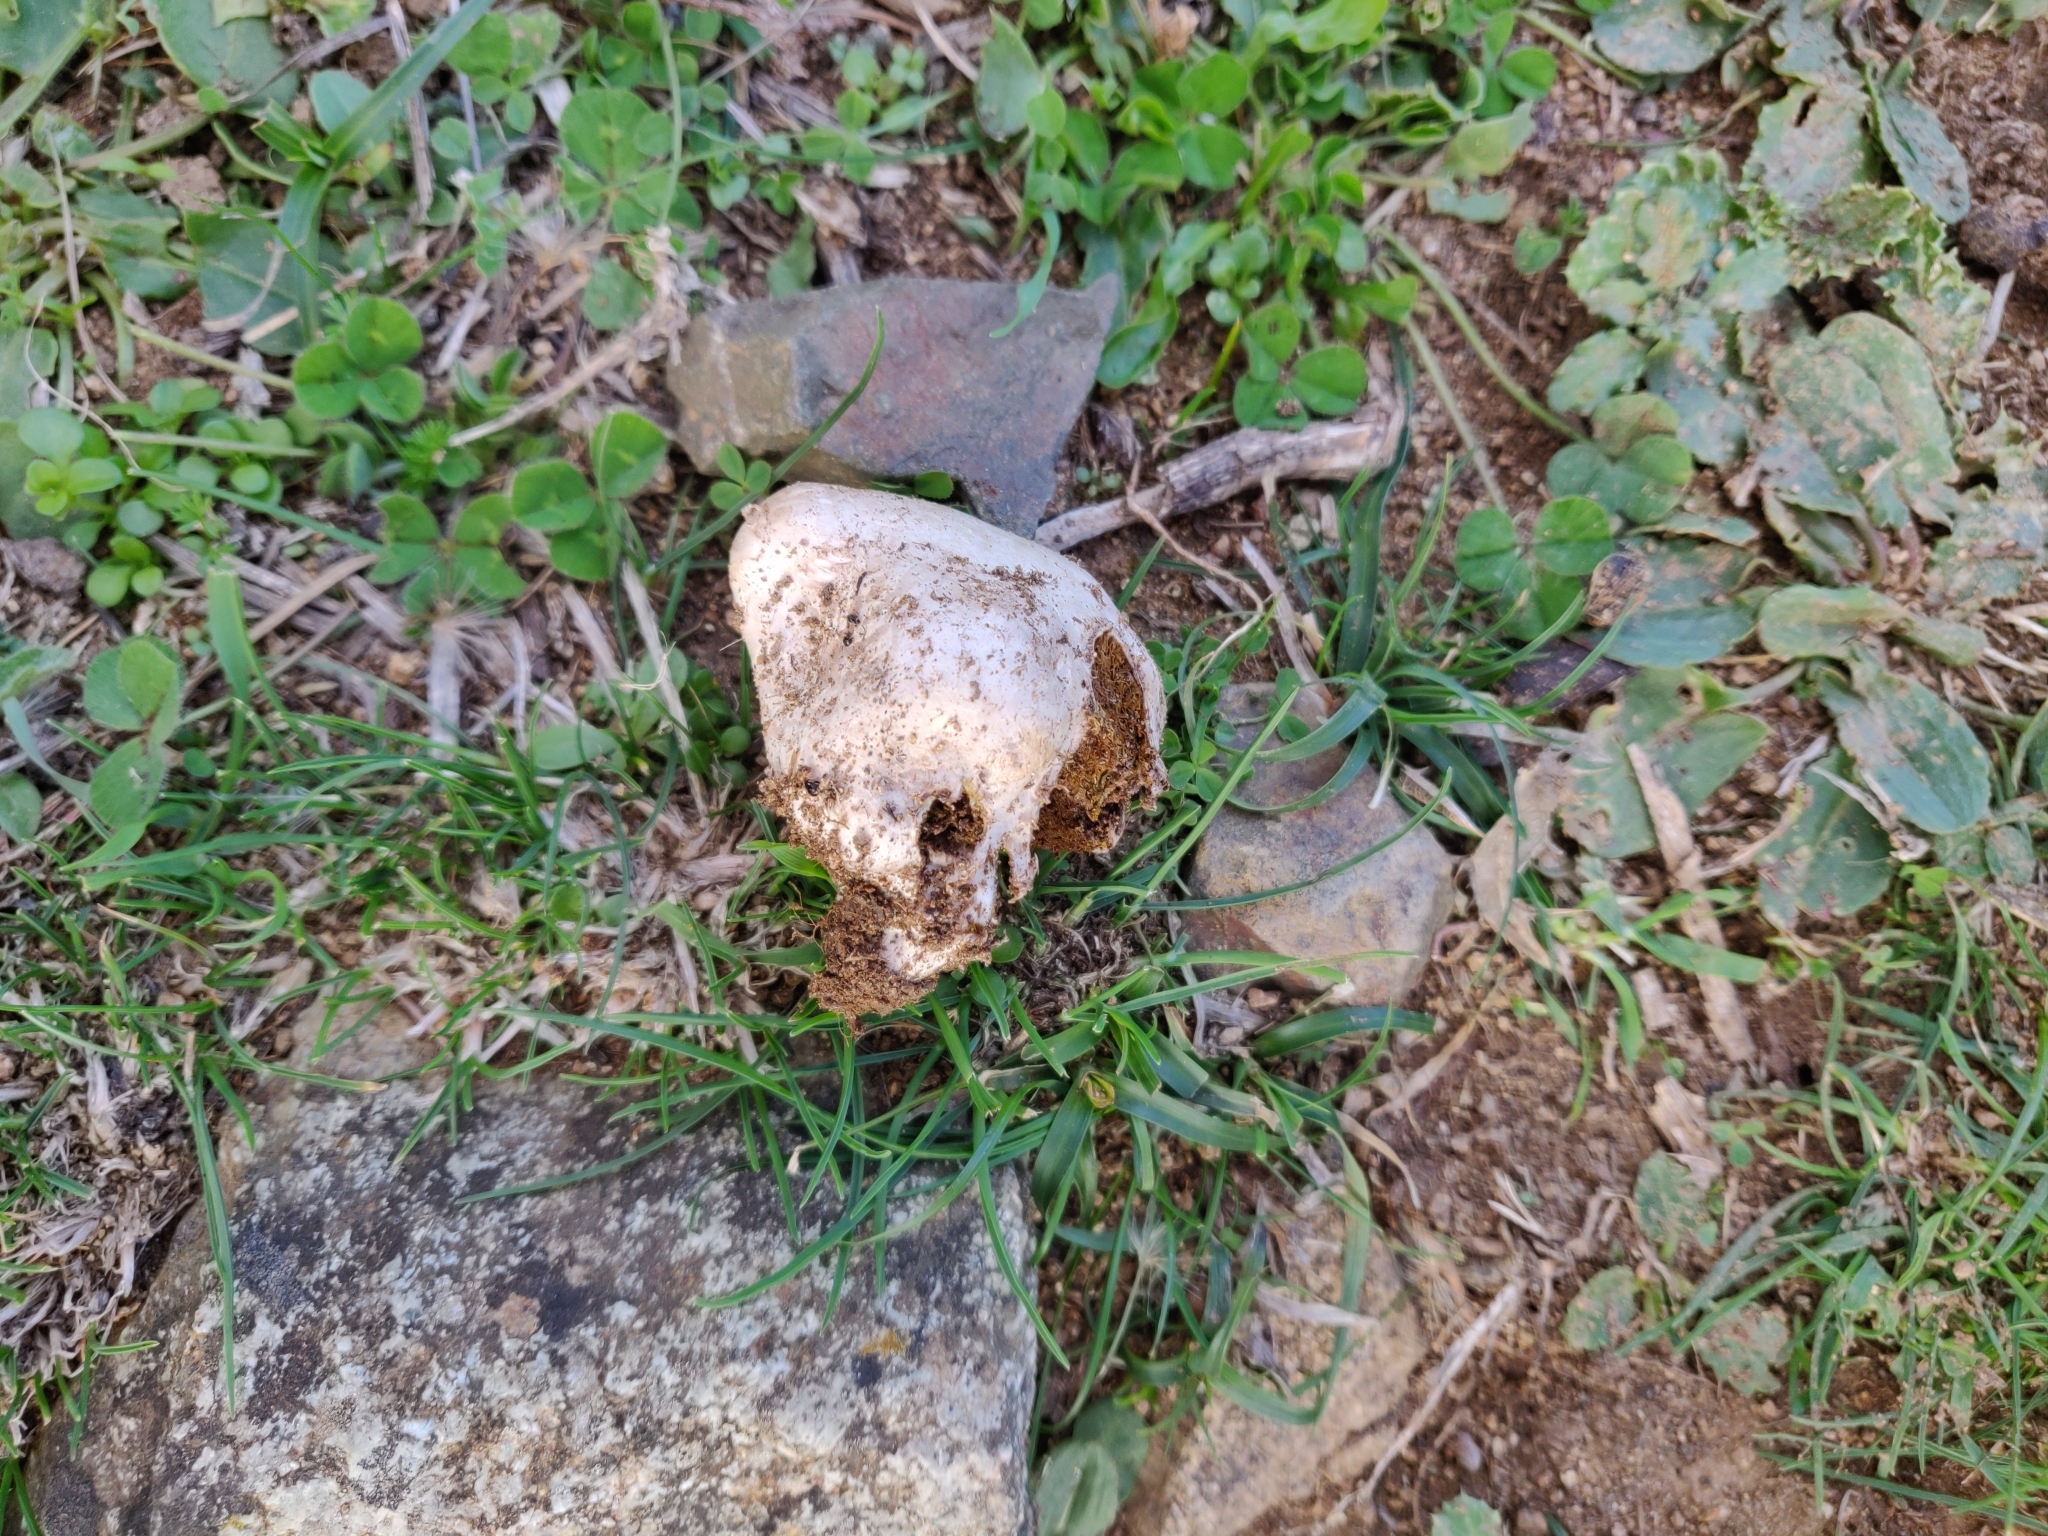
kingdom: Fungi
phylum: Basidiomycota
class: Agaricomycetes
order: Agaricales
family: Agaricaceae
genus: Chlorophyllum
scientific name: Chlorophyllum agaricoides
